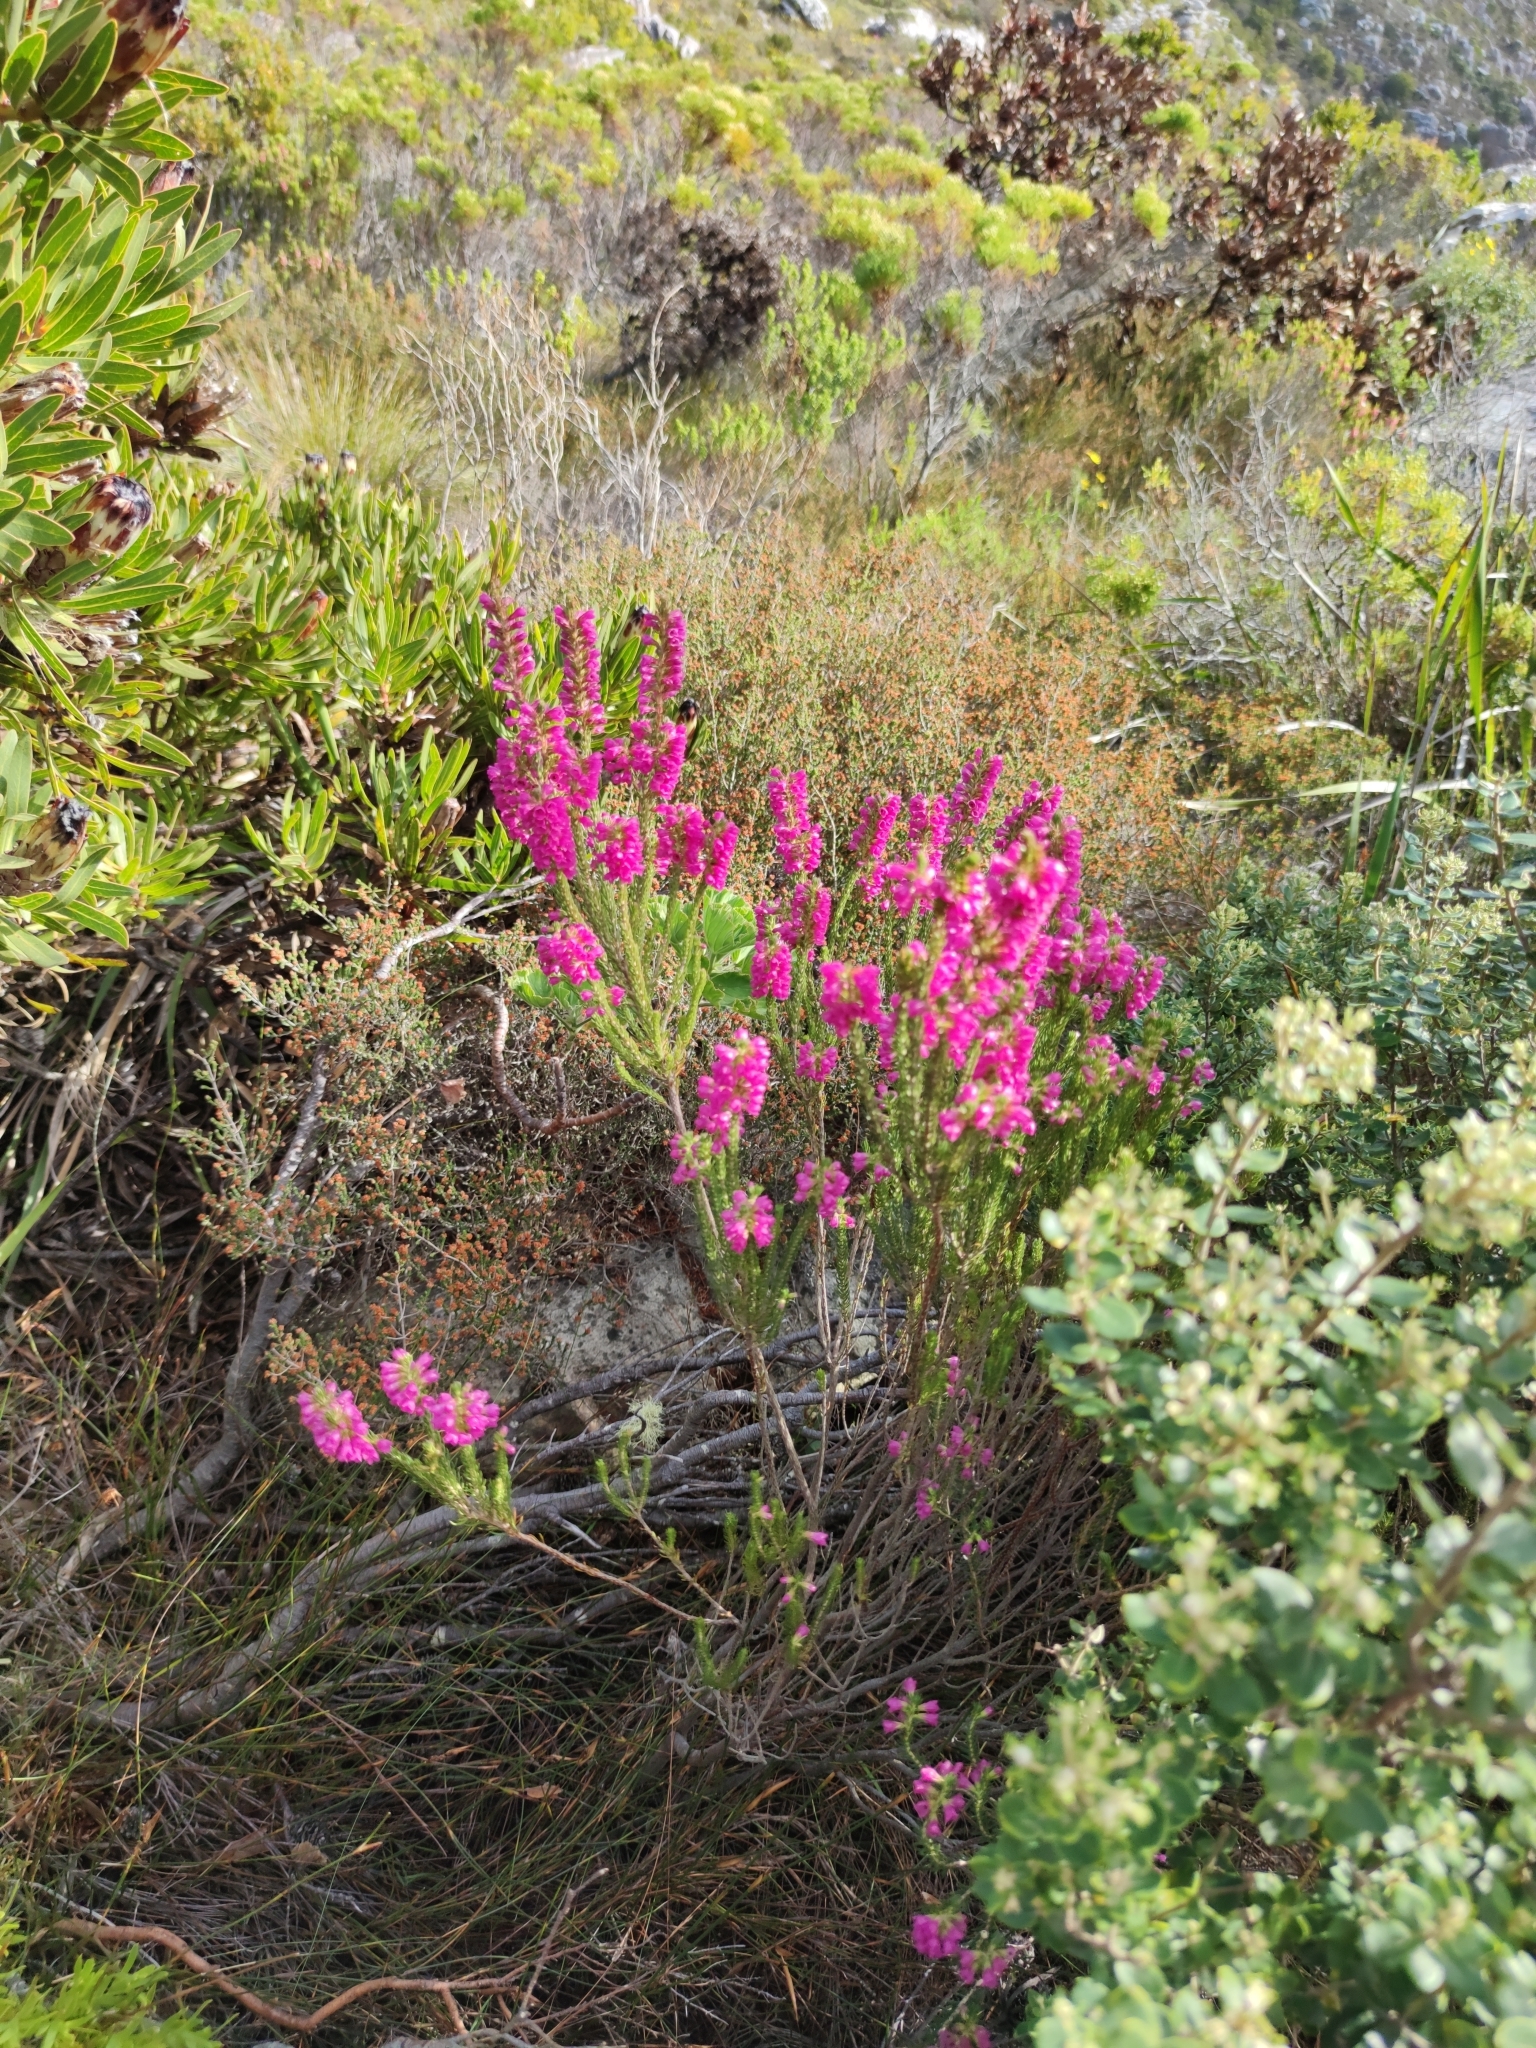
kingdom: Plantae
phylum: Tracheophyta
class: Magnoliopsida
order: Ericales
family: Ericaceae
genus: Erica
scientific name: Erica abietina
